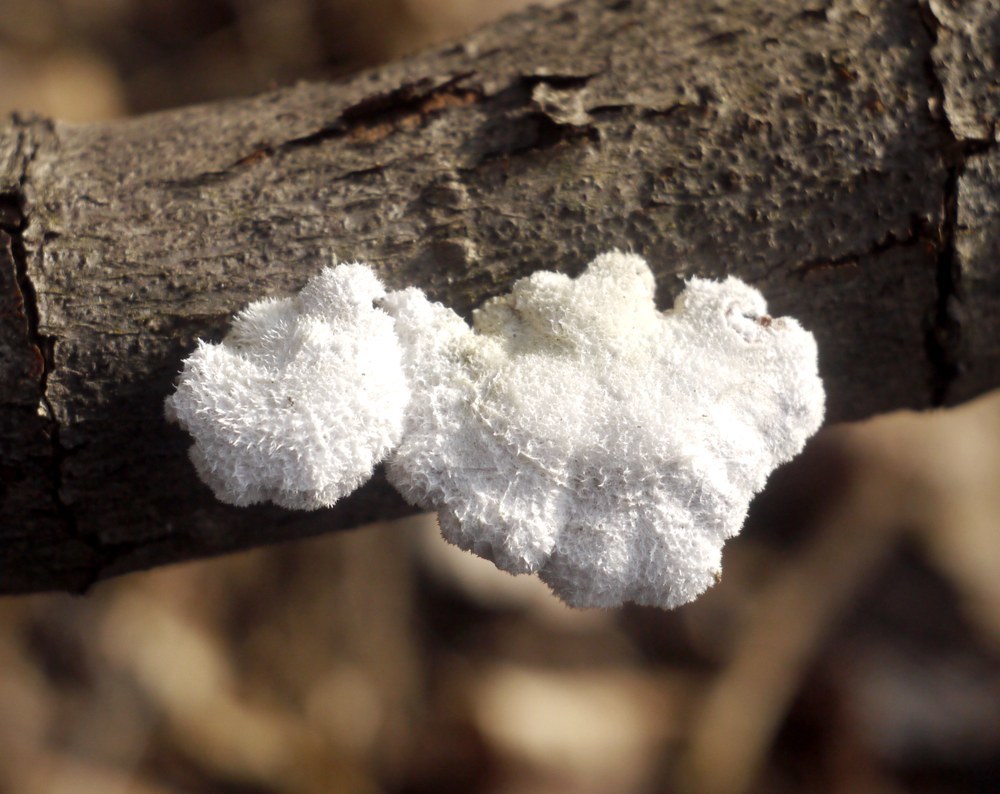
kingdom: Fungi
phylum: Basidiomycota
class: Agaricomycetes
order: Agaricales
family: Schizophyllaceae
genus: Schizophyllum
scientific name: Schizophyllum commune
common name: Common porecrust
